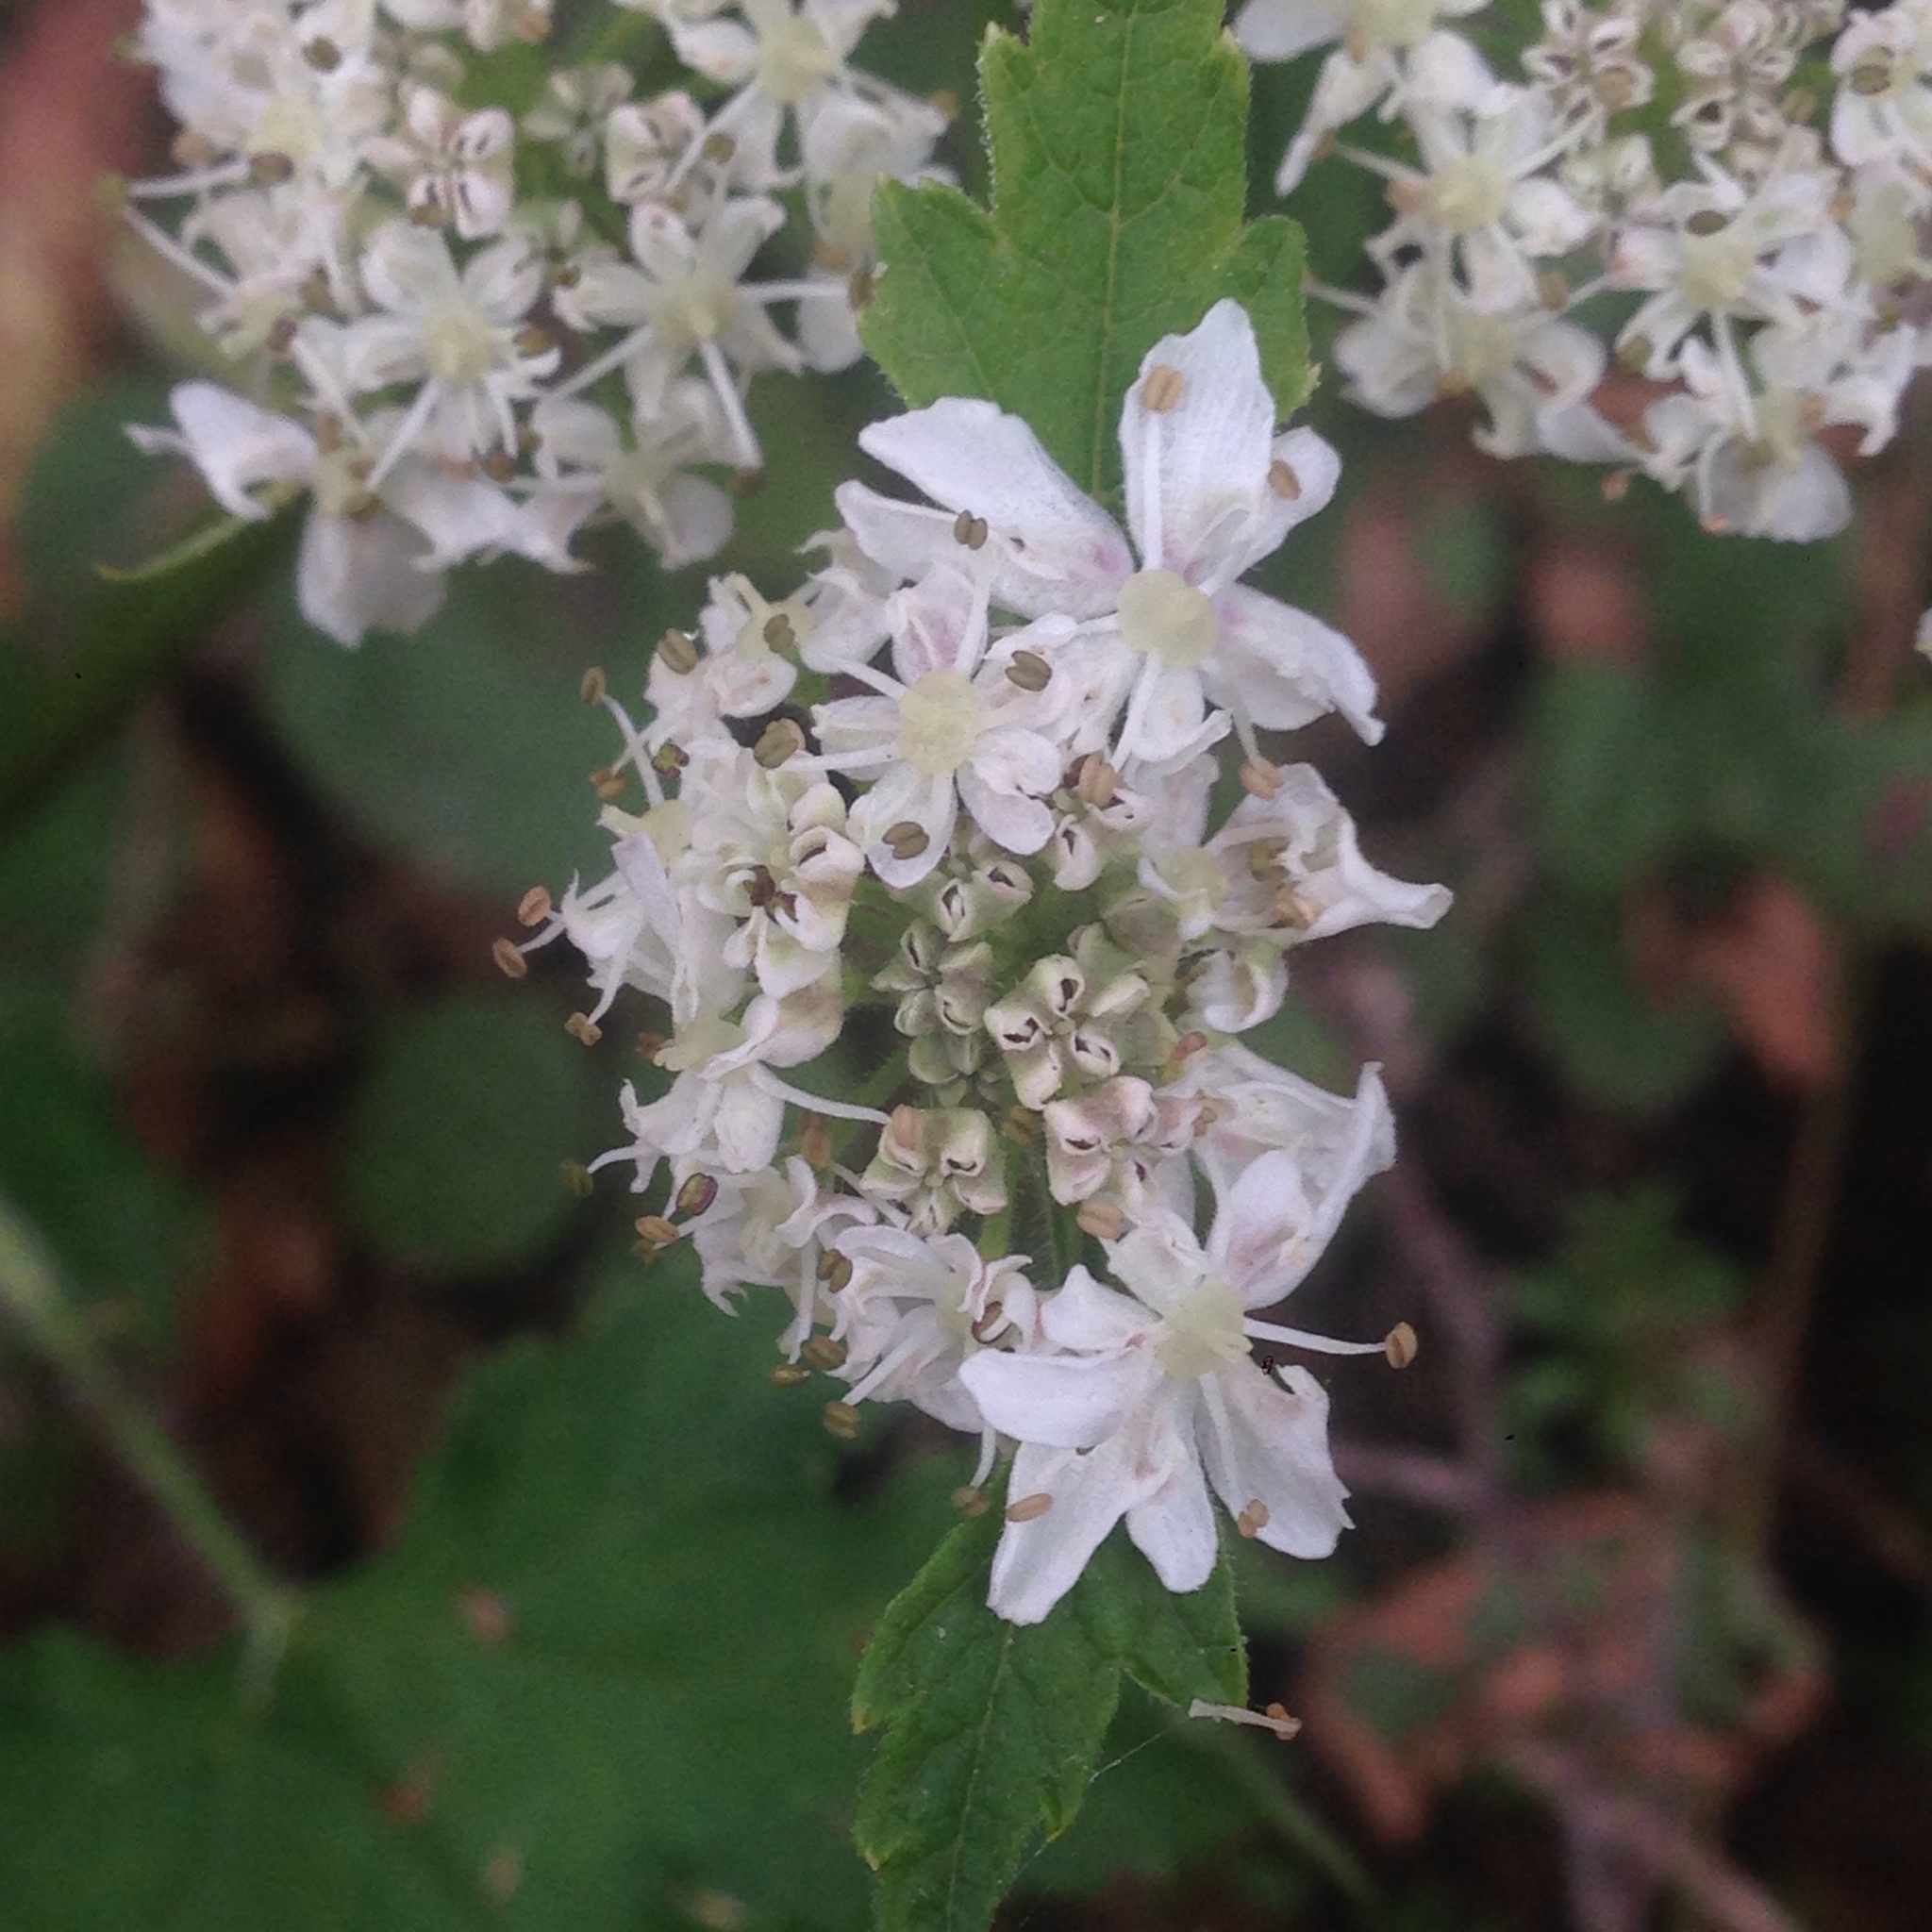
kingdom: Plantae
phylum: Tracheophyta
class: Magnoliopsida
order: Apiales
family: Apiaceae
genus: Heracleum
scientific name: Heracleum maximum
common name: American cow parsnip
